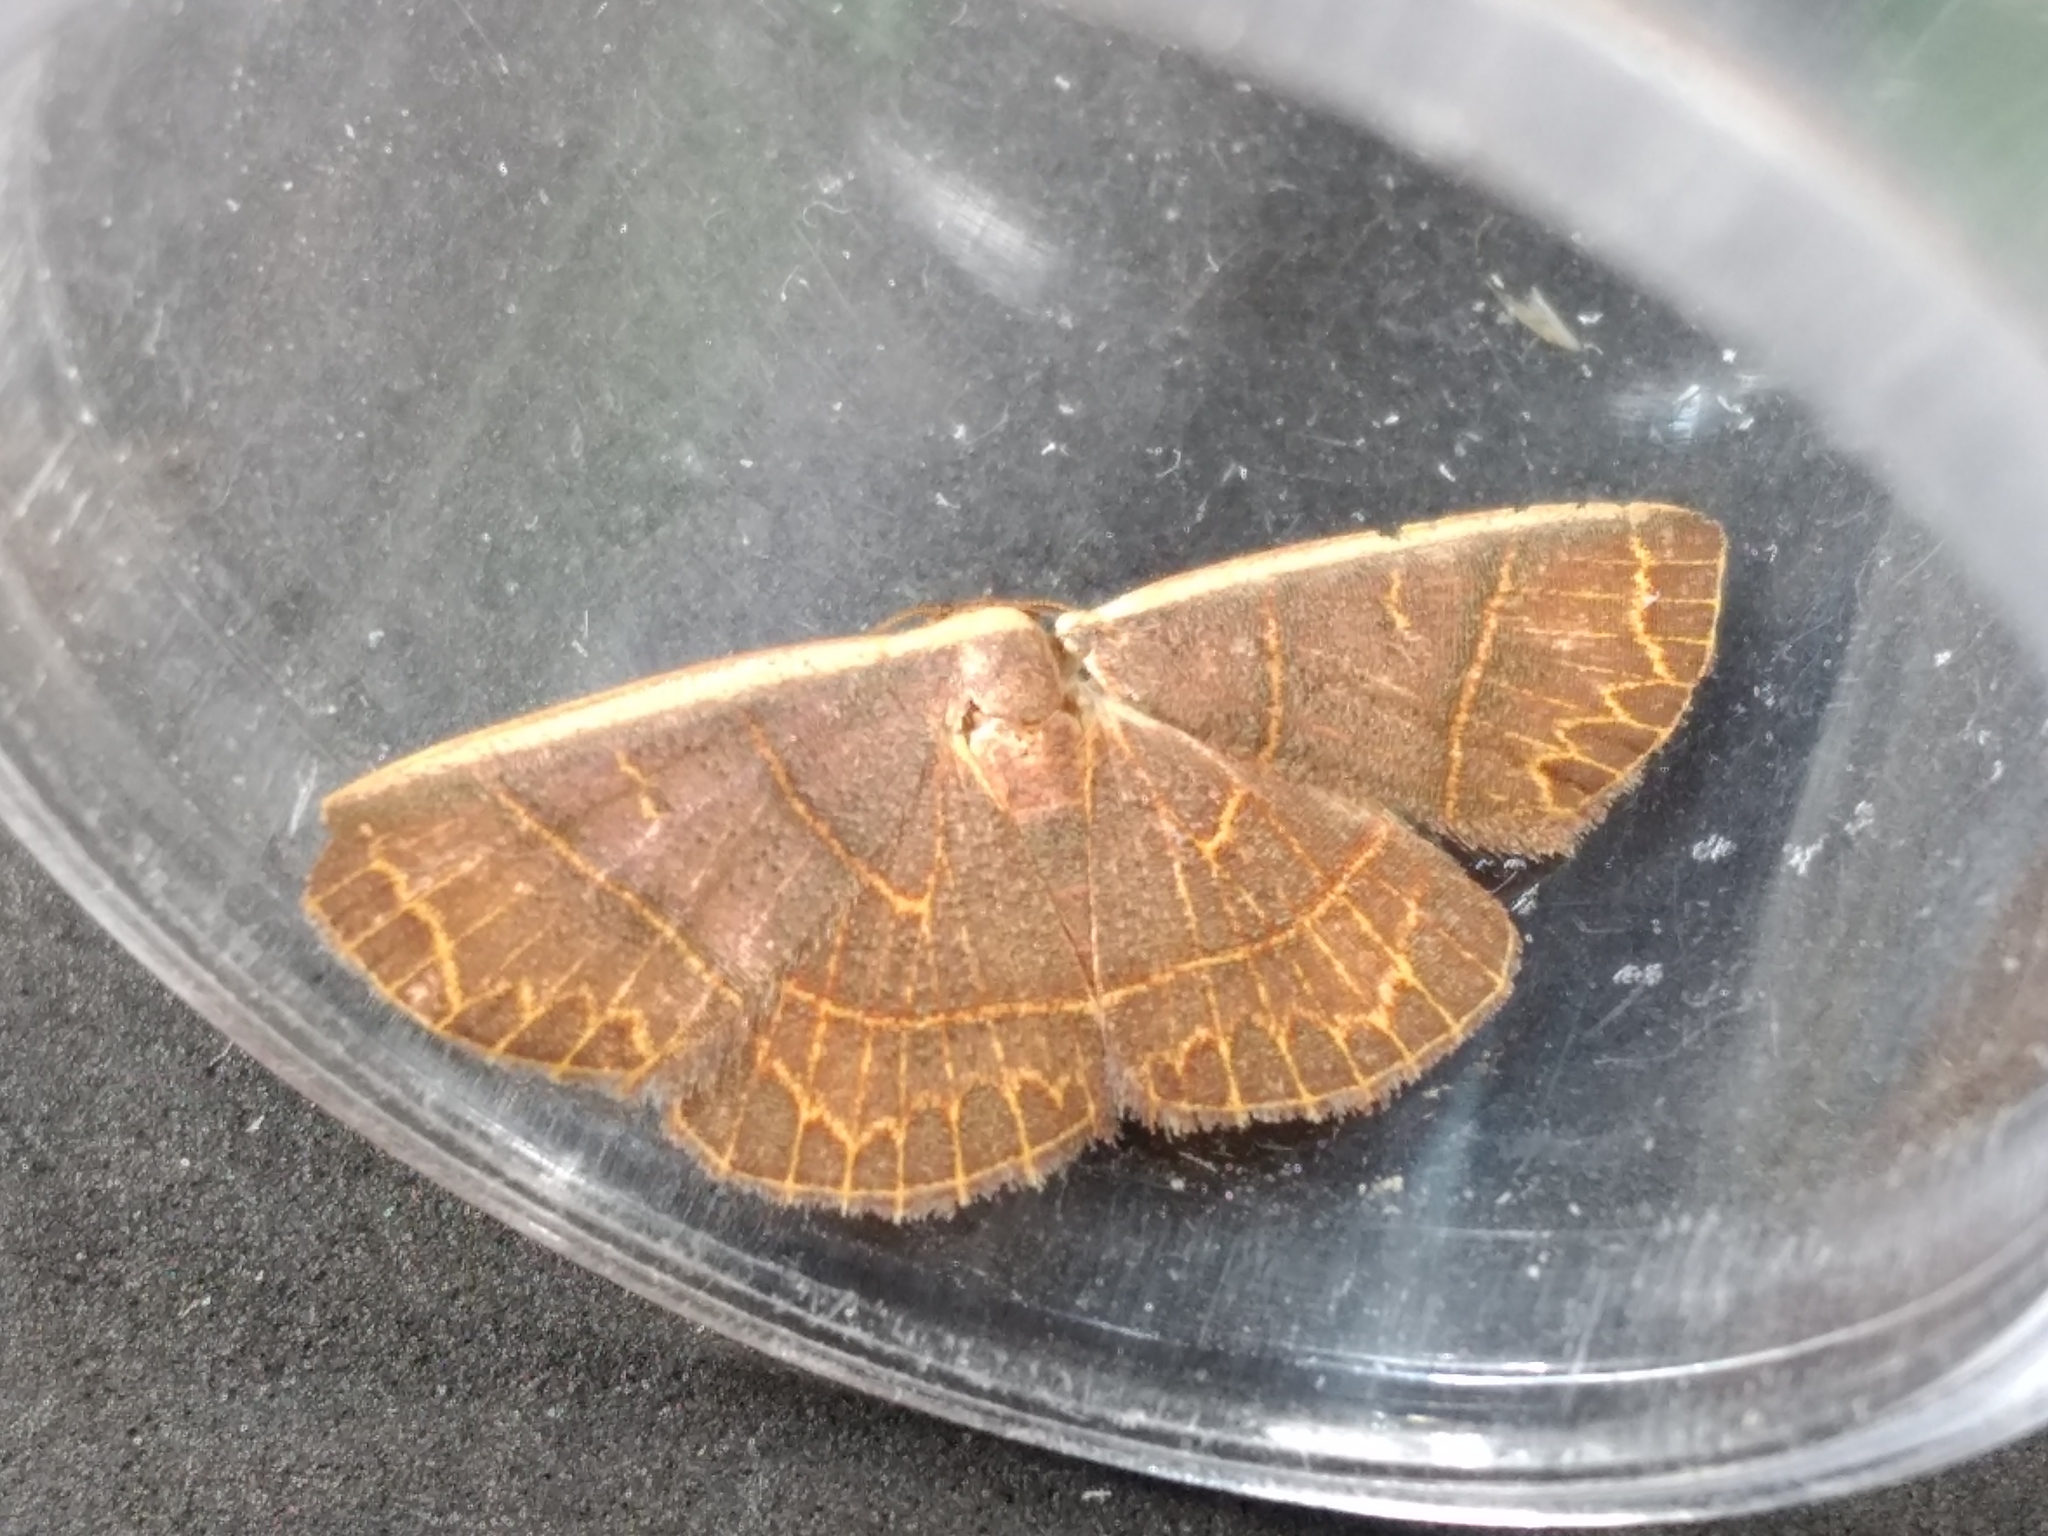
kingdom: Animalia
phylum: Arthropoda
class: Insecta
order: Lepidoptera
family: Noctuidae
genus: Oruza
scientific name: Oruza crocodeta
